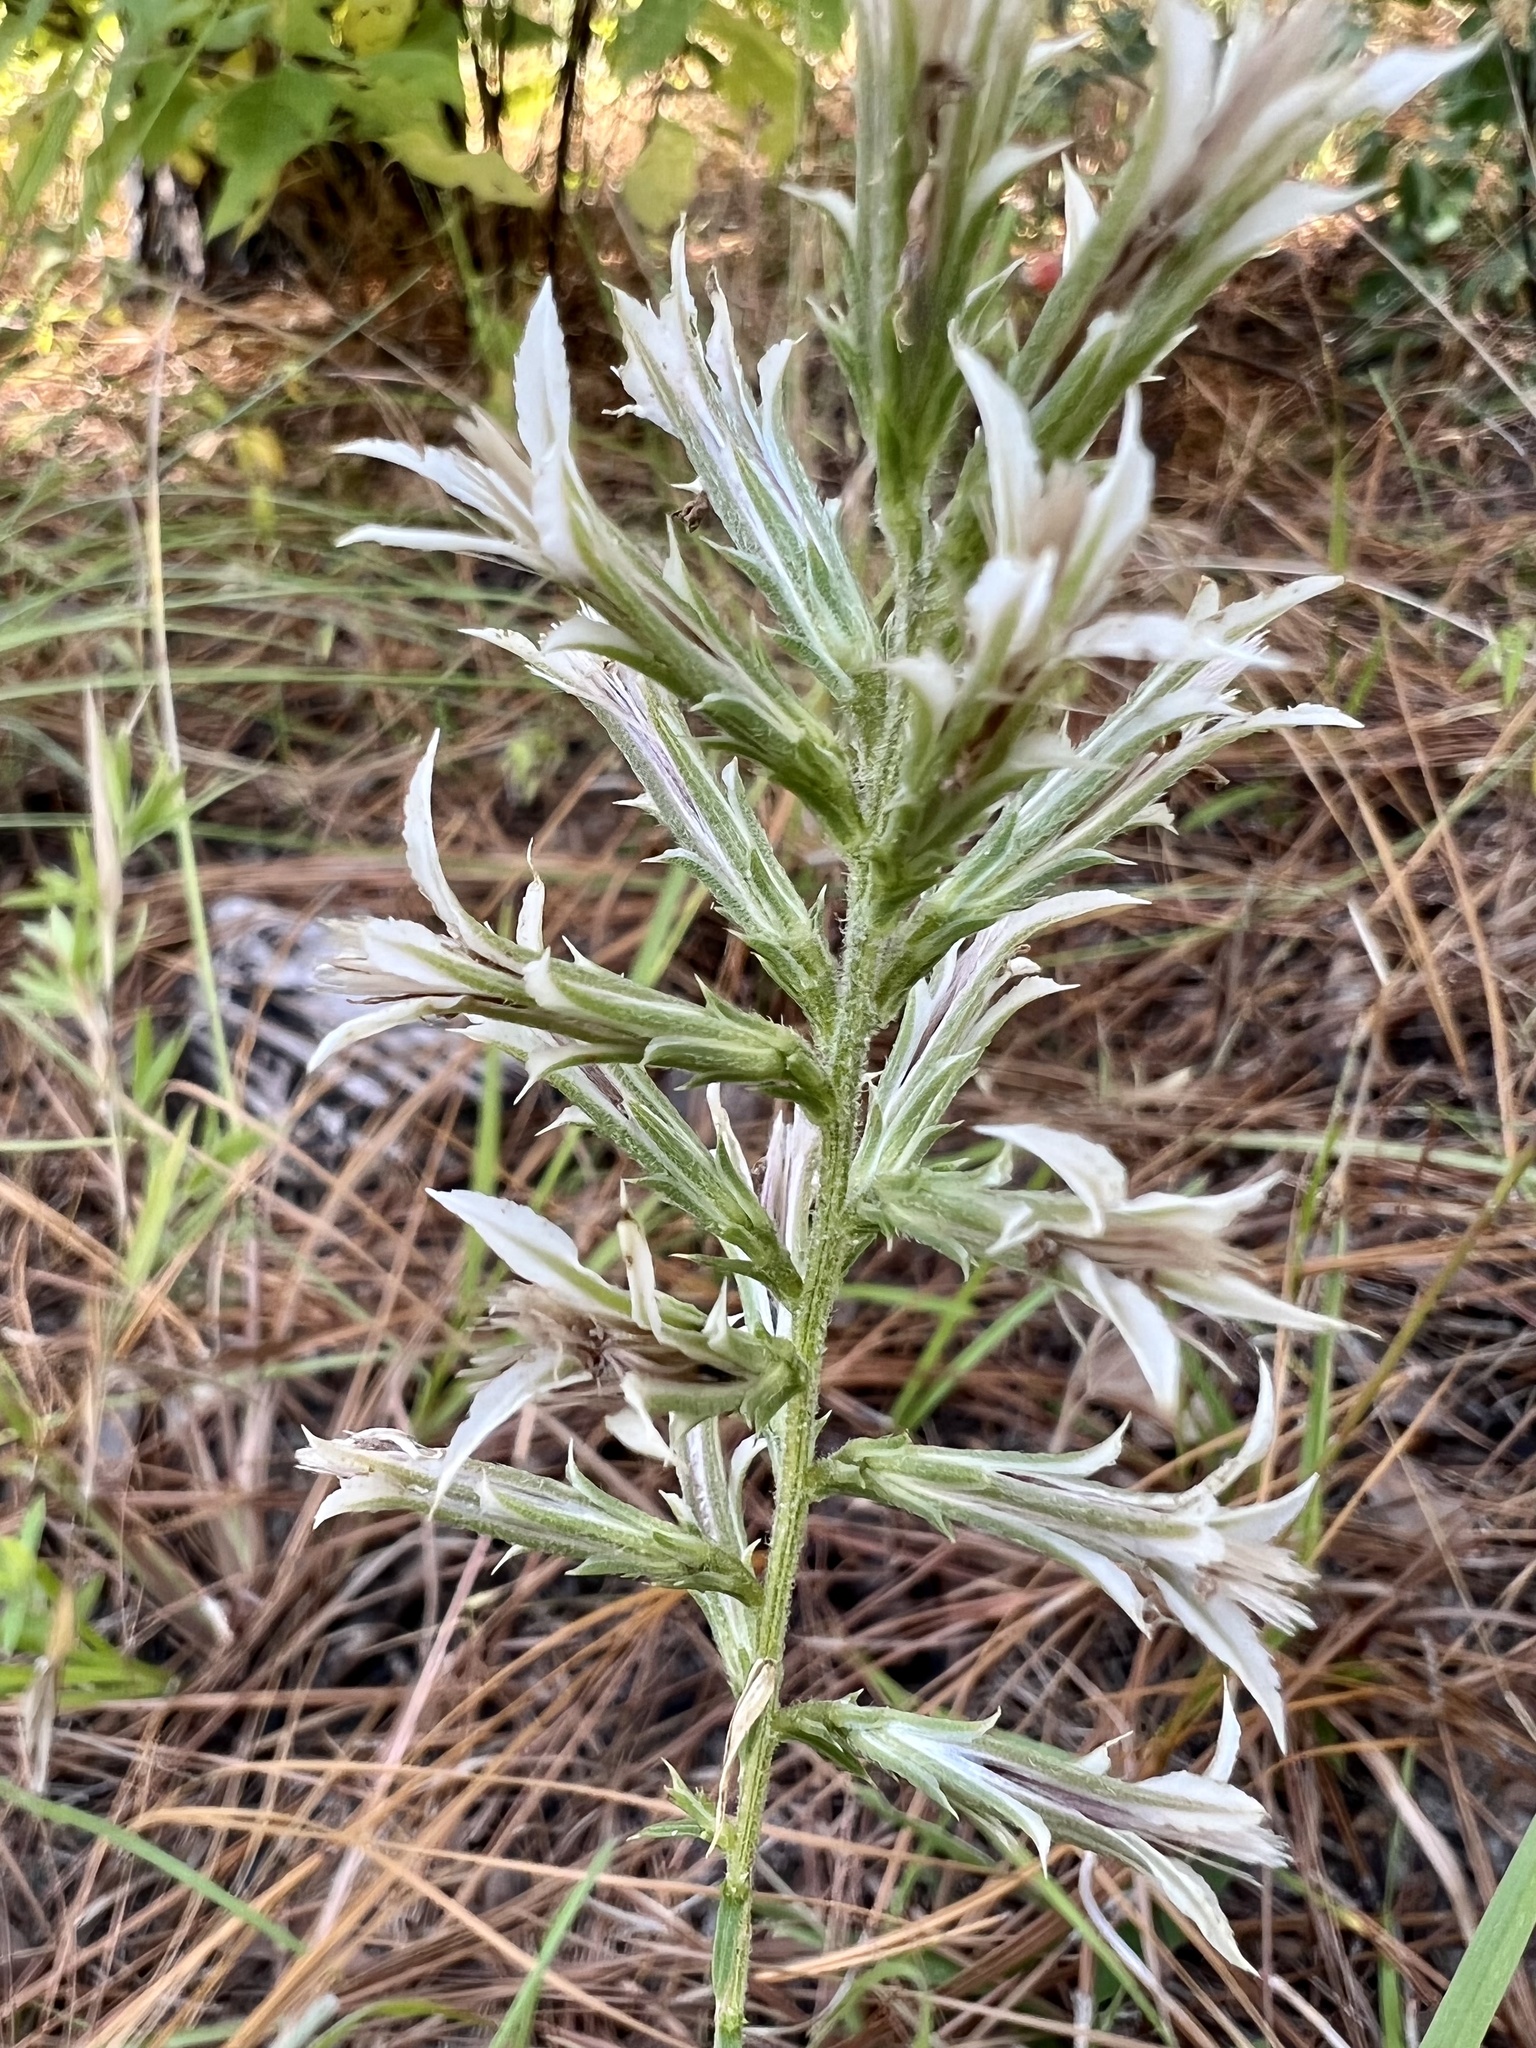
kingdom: Plantae
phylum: Tracheophyta
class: Magnoliopsida
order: Asterales
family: Asteraceae
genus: Liatris
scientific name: Liatris hesperelegans
